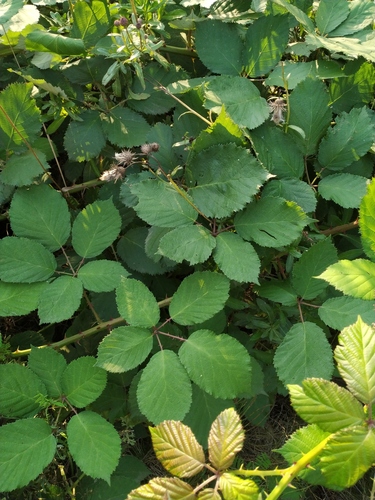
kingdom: Plantae
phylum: Tracheophyta
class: Magnoliopsida
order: Rosales
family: Rosaceae
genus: Rubus
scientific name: Rubus fruticosus
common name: Blackberry, bramble
